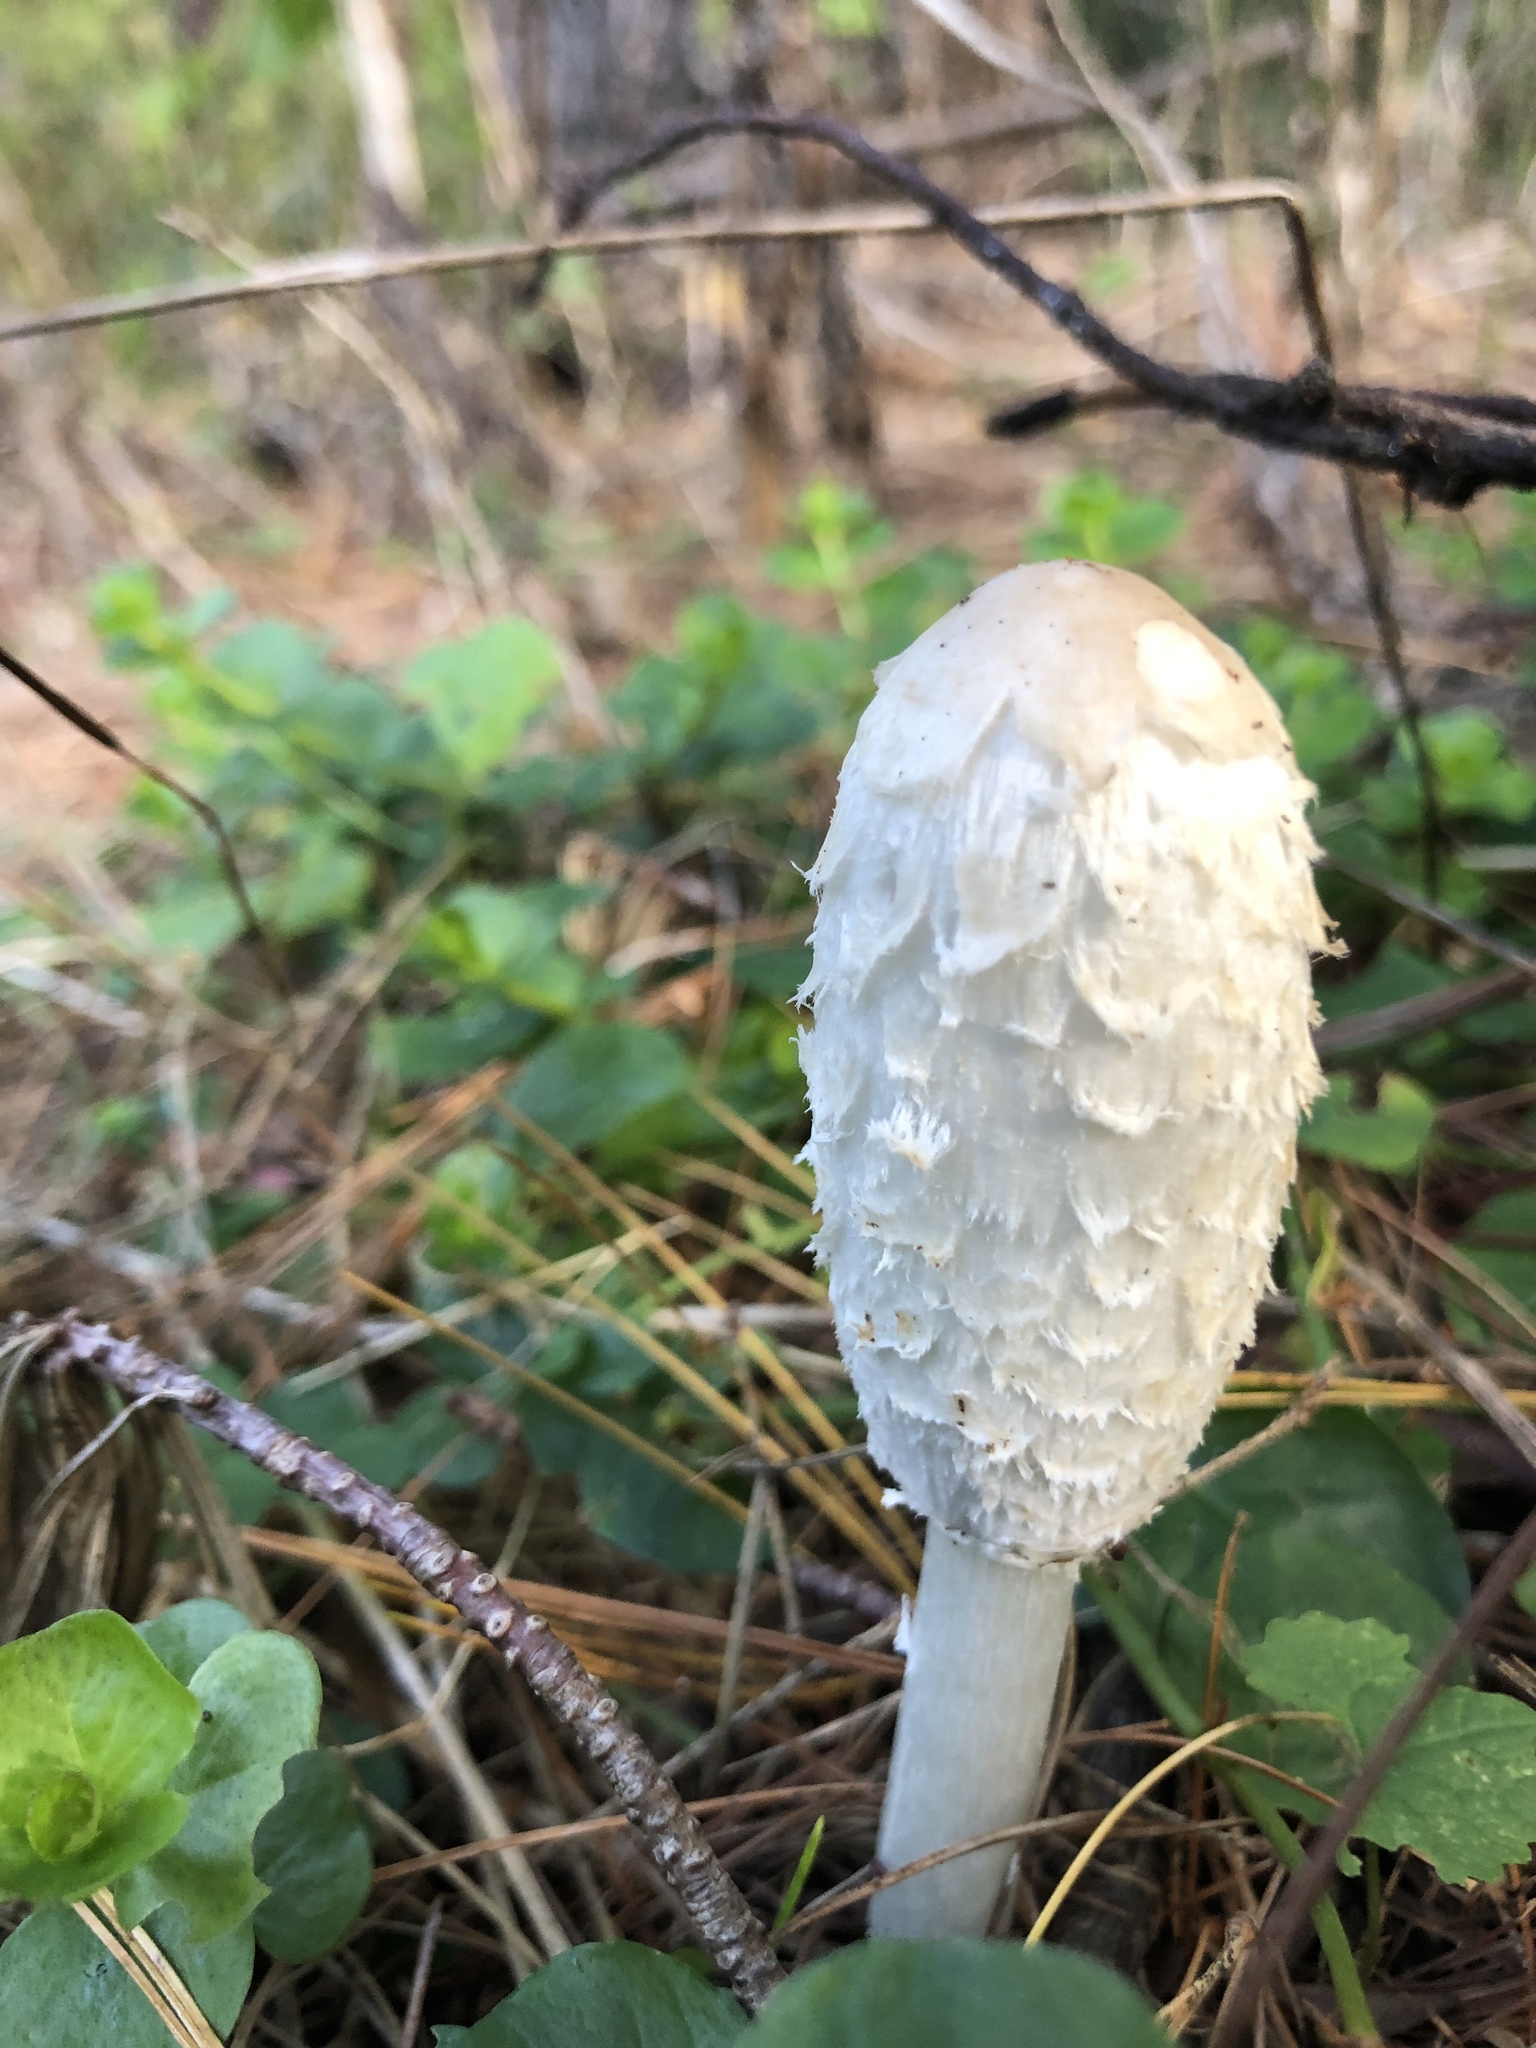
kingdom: Fungi
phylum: Basidiomycota
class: Agaricomycetes
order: Agaricales
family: Agaricaceae
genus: Coprinus
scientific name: Coprinus comatus
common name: Lawyer's wig
